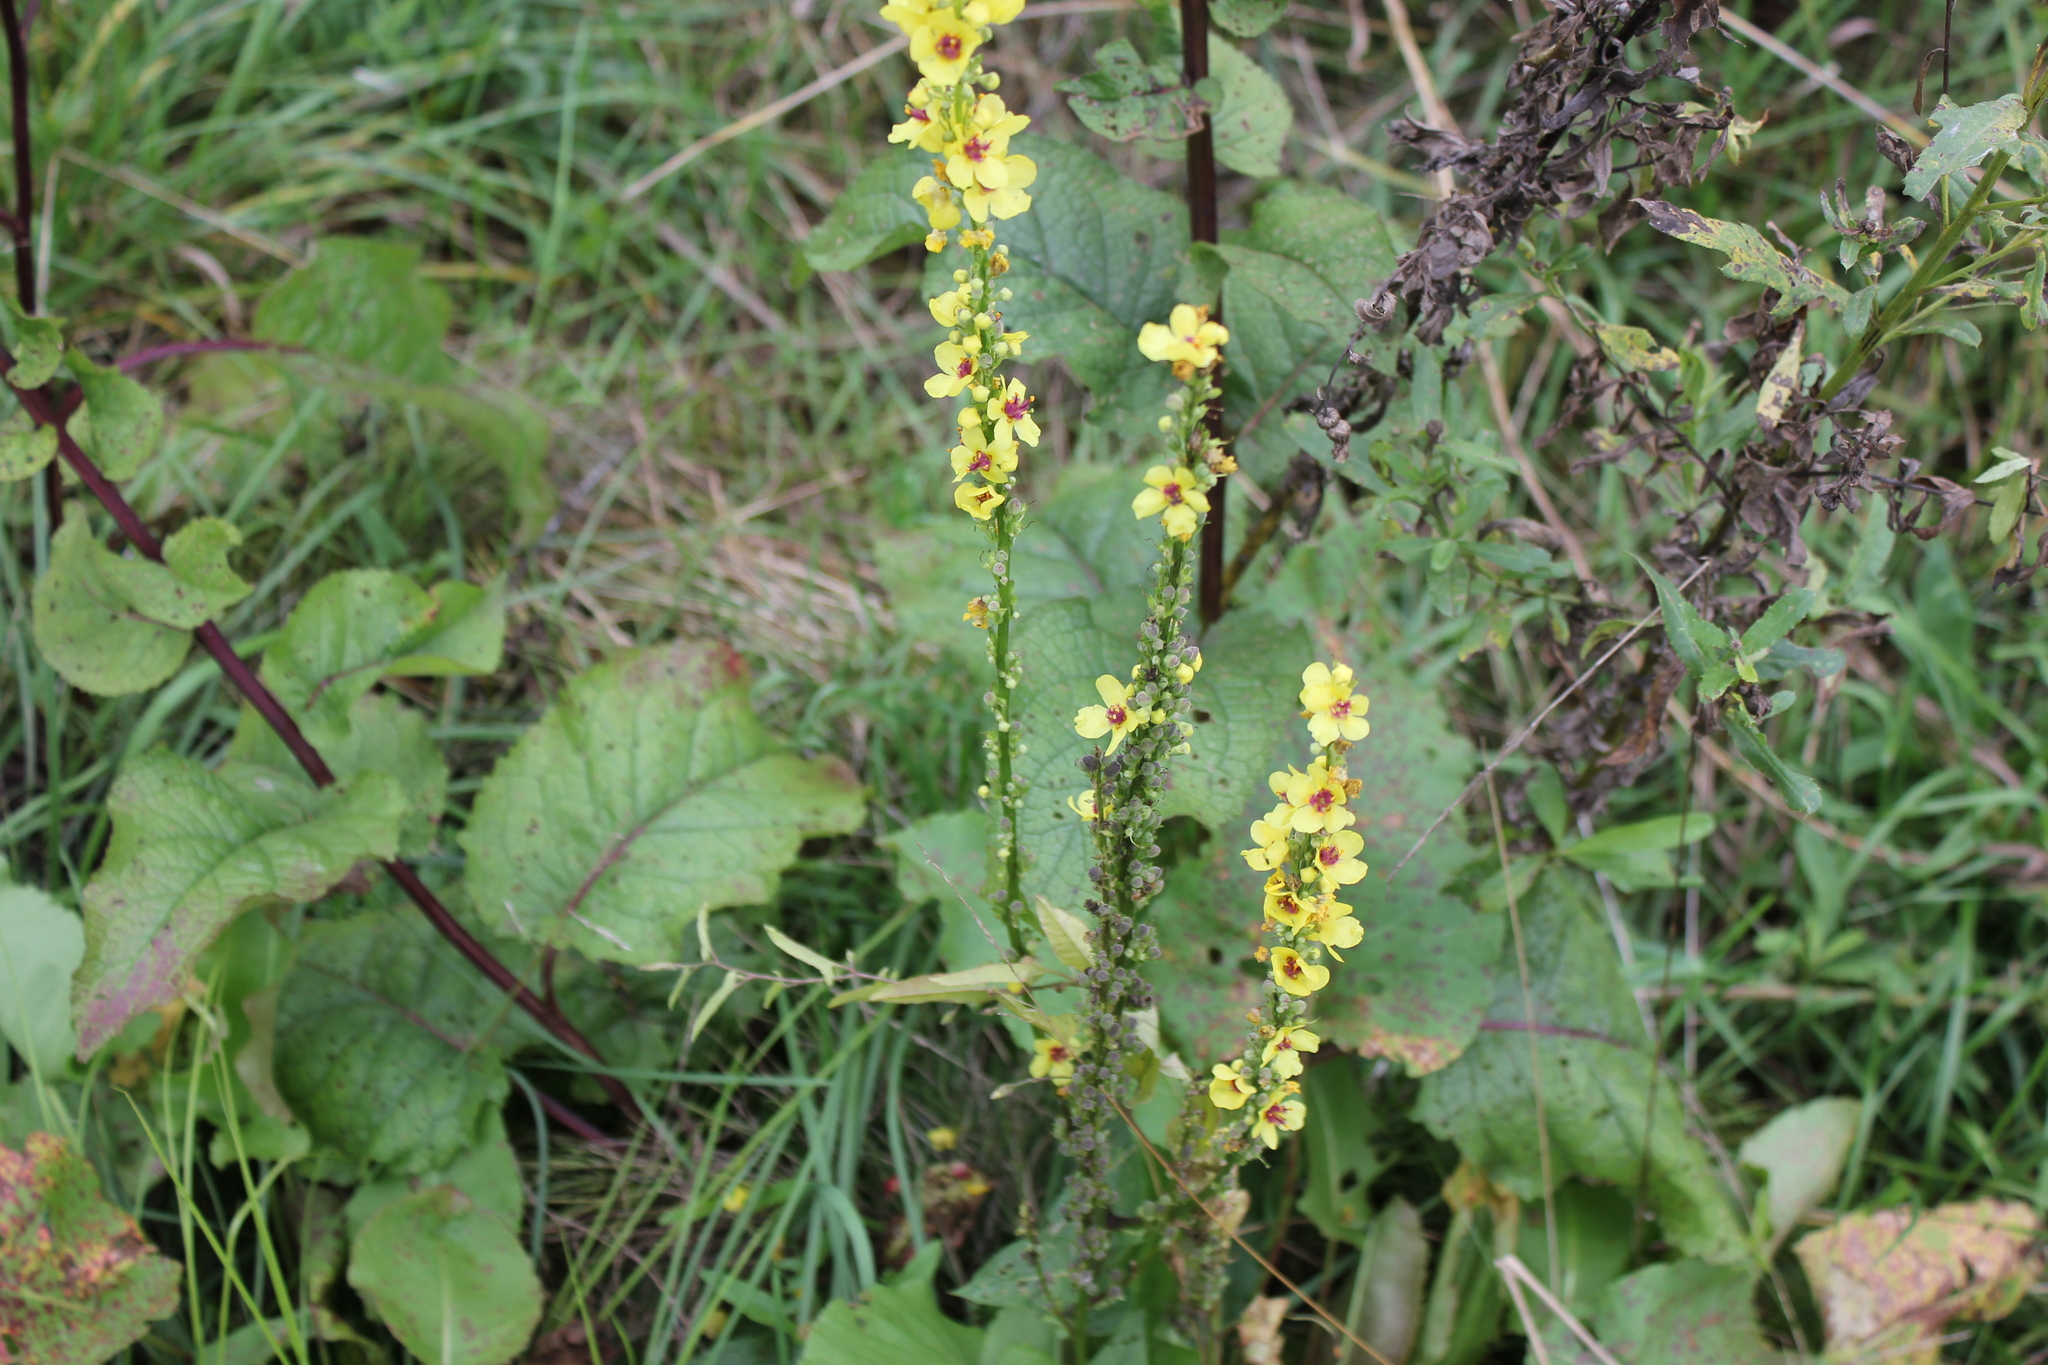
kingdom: Plantae
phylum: Tracheophyta
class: Magnoliopsida
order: Lamiales
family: Scrophulariaceae
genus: Verbascum
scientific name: Verbascum nigrum
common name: Dark mullein
